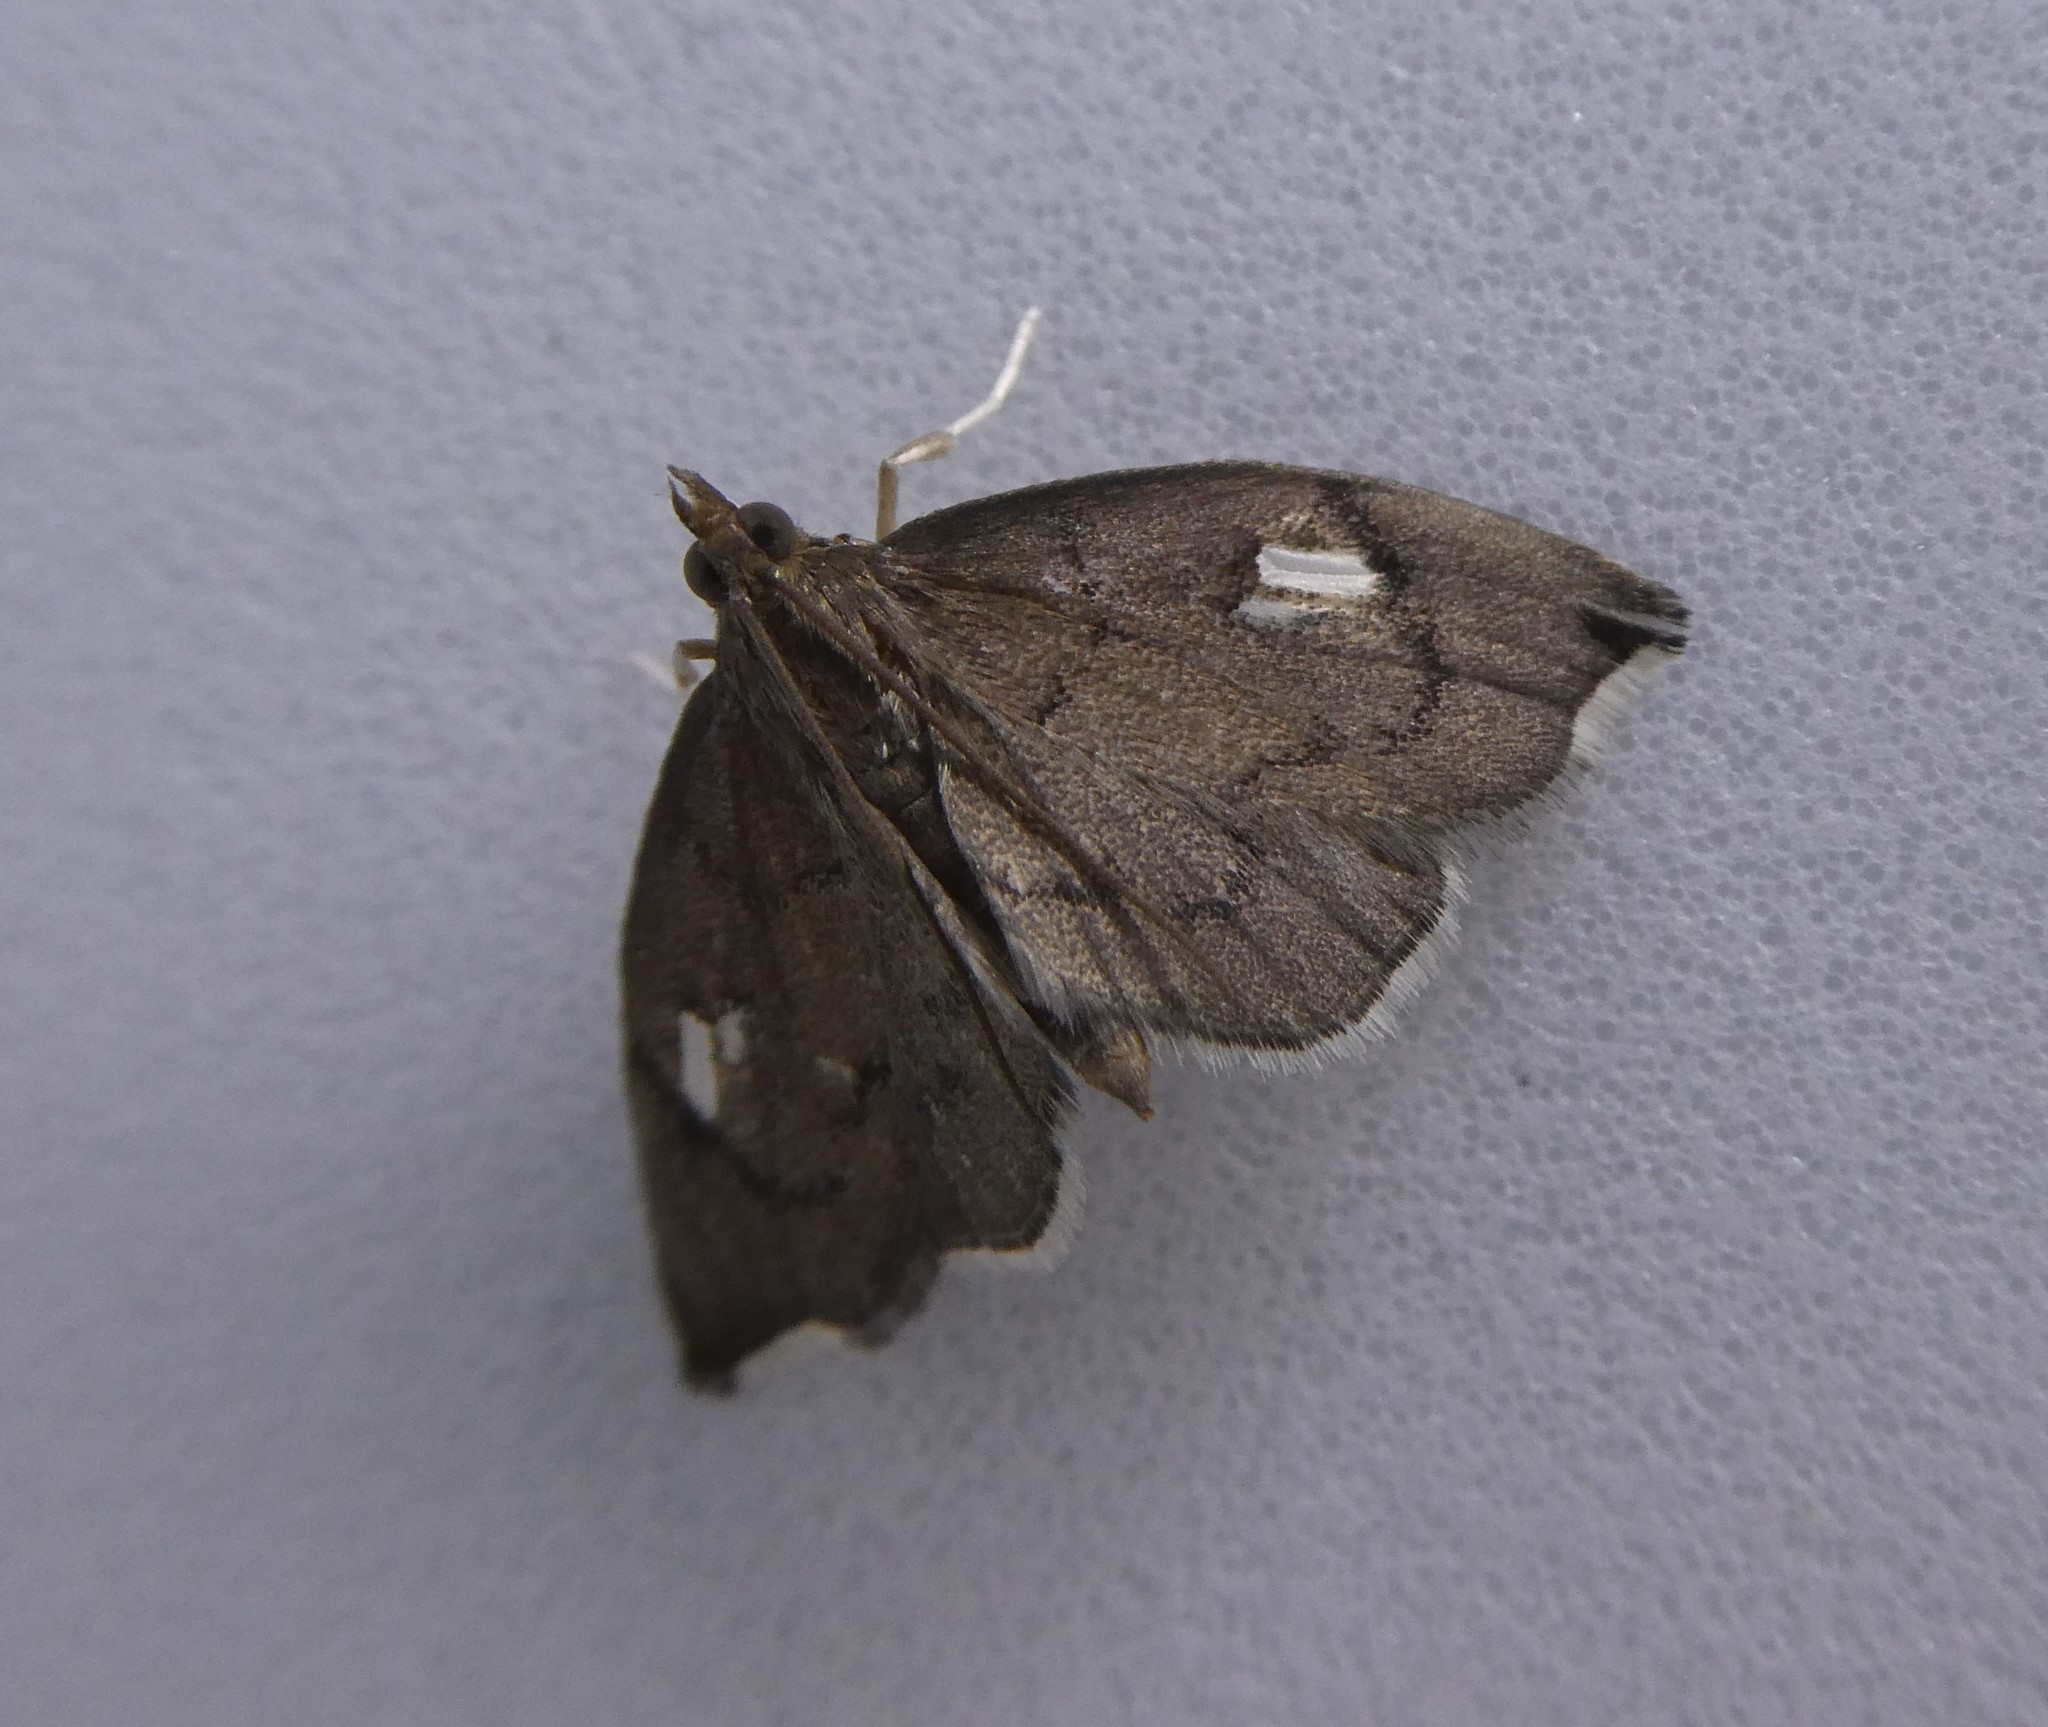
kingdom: Animalia
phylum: Arthropoda
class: Insecta
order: Lepidoptera
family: Crambidae
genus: Perispasta
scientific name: Perispasta caeculalis
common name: Titian peale's moth
